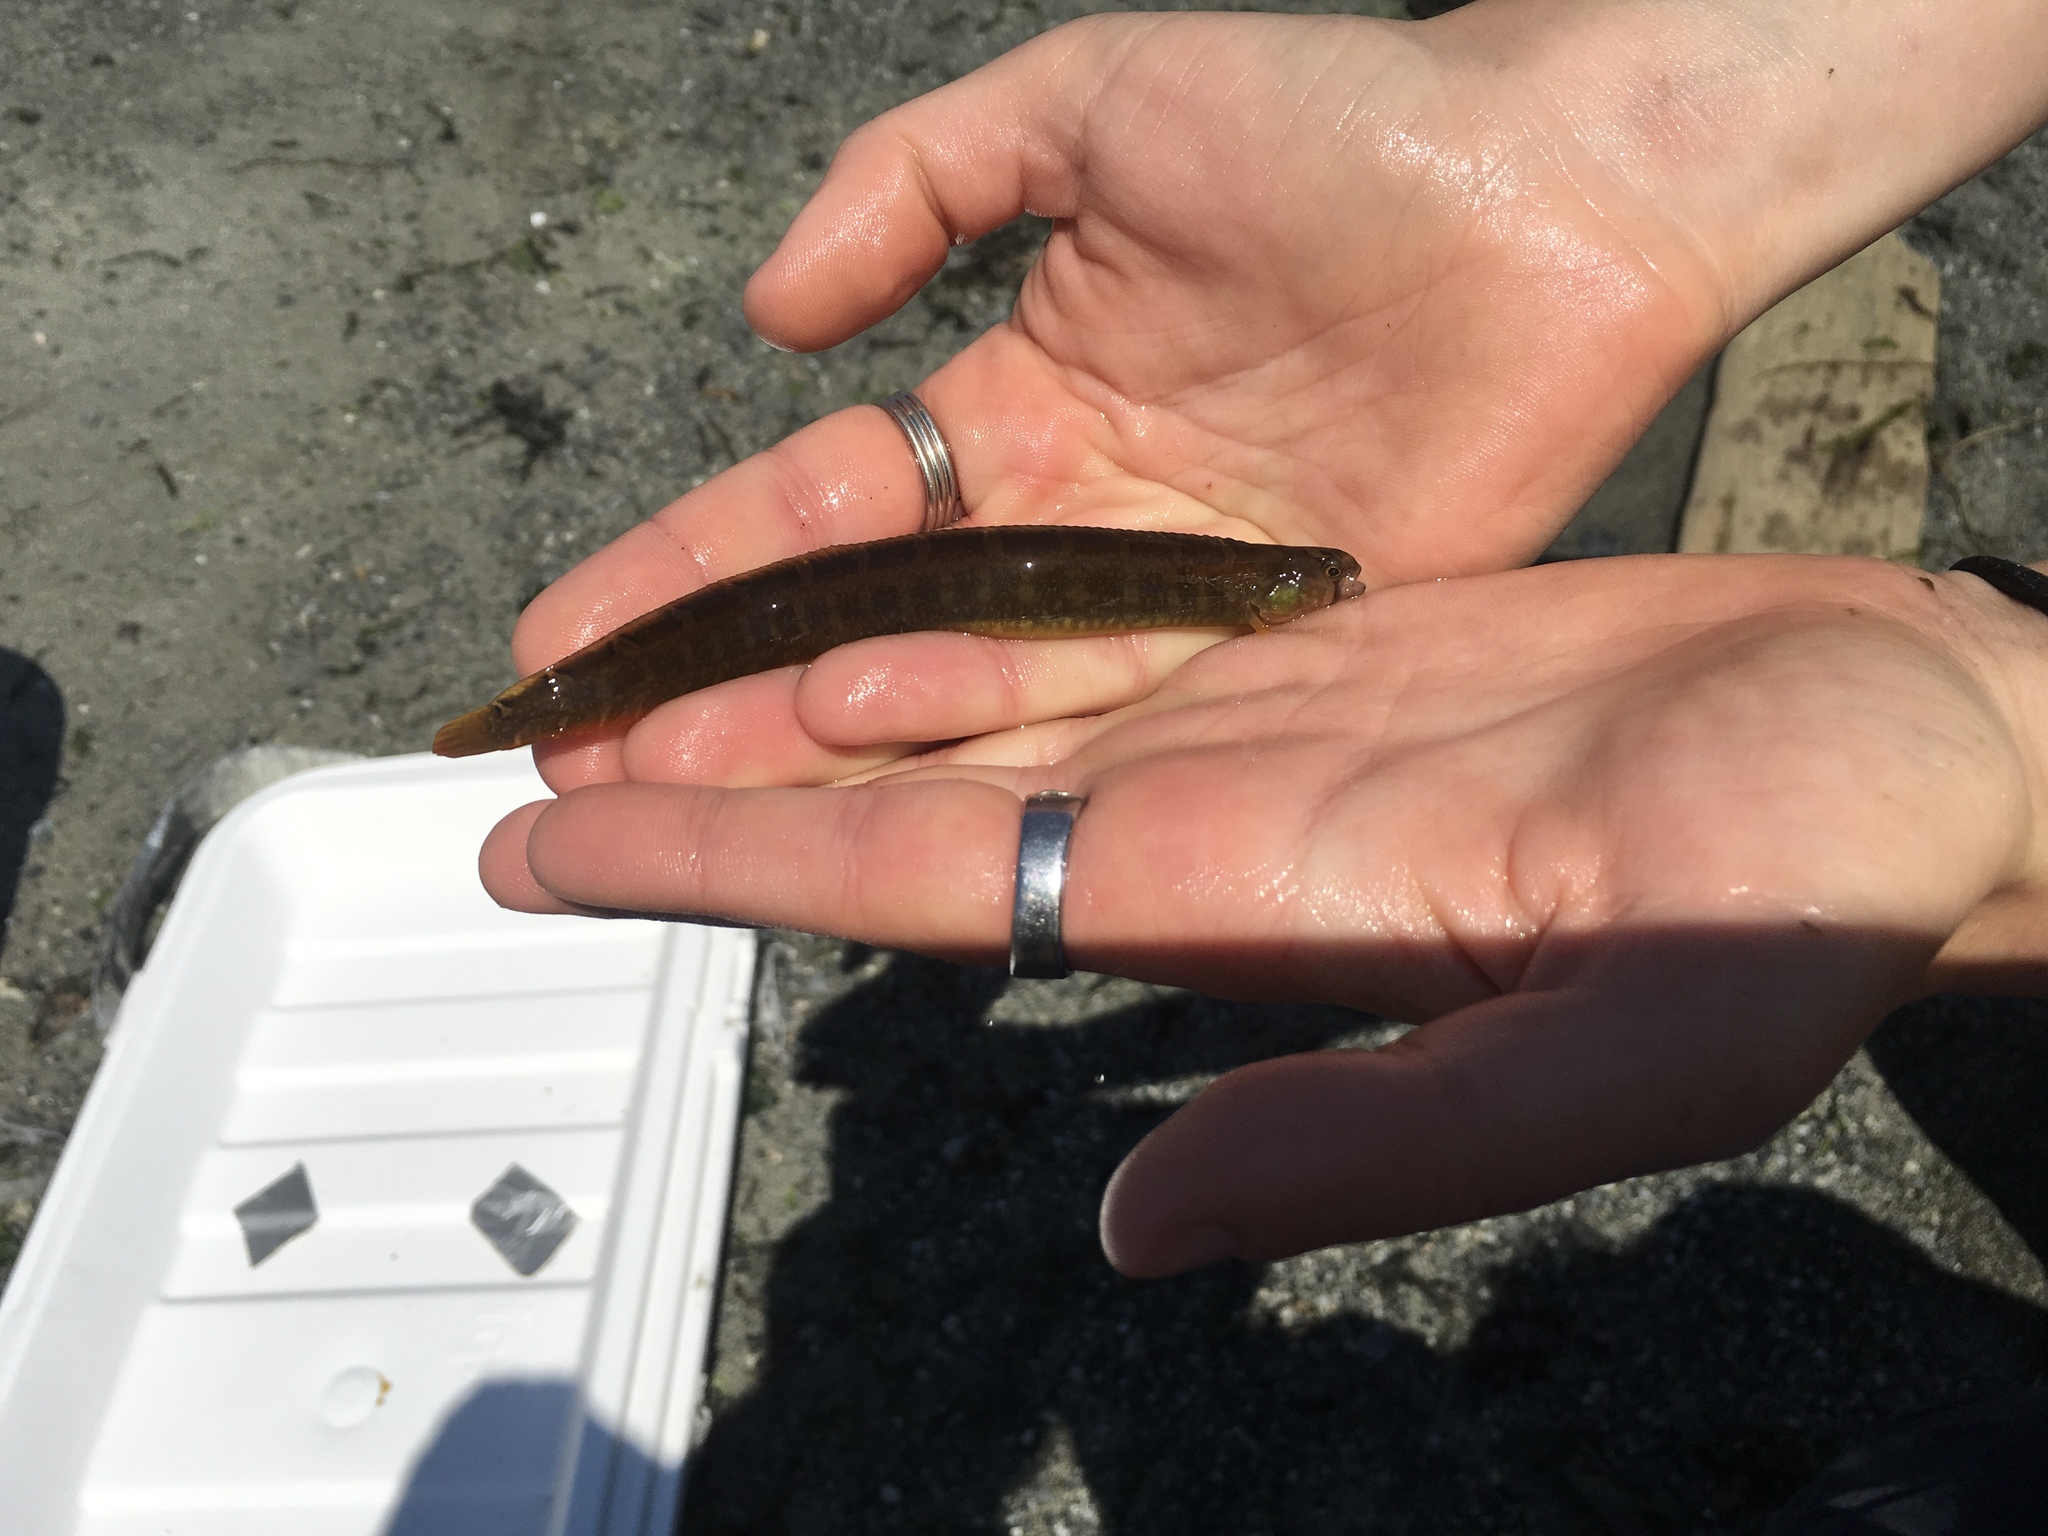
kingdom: Animalia
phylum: Chordata
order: Perciformes
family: Pholidae
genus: Pholis
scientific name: Pholis laeta
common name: Crescent gunnel
